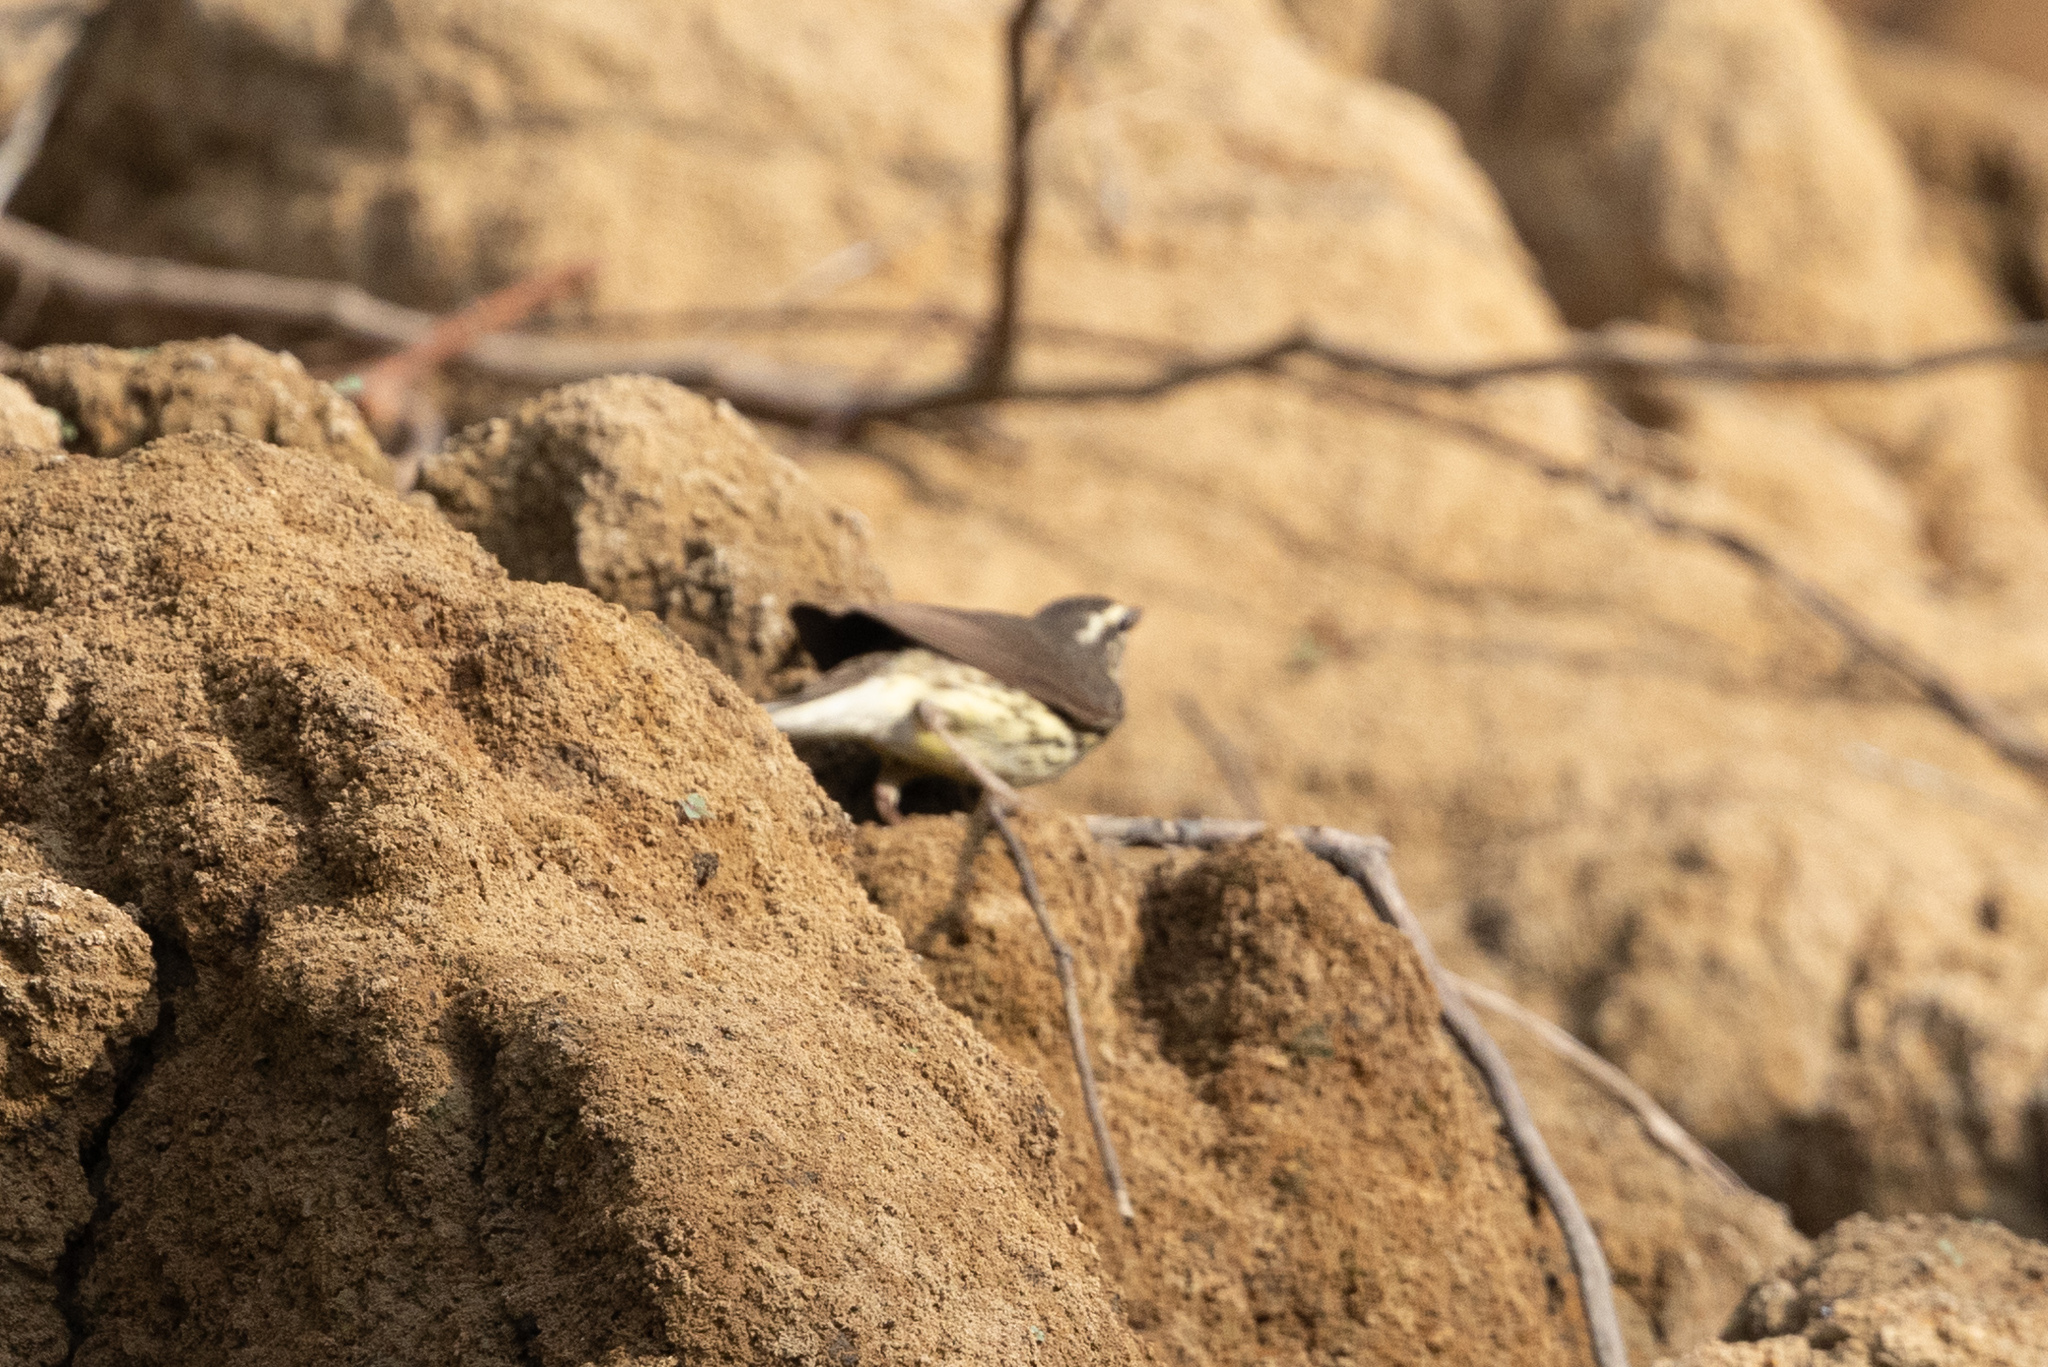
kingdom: Animalia
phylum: Chordata
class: Aves
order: Passeriformes
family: Parulidae
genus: Parkesia
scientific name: Parkesia noveboracensis
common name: Northern waterthrush
